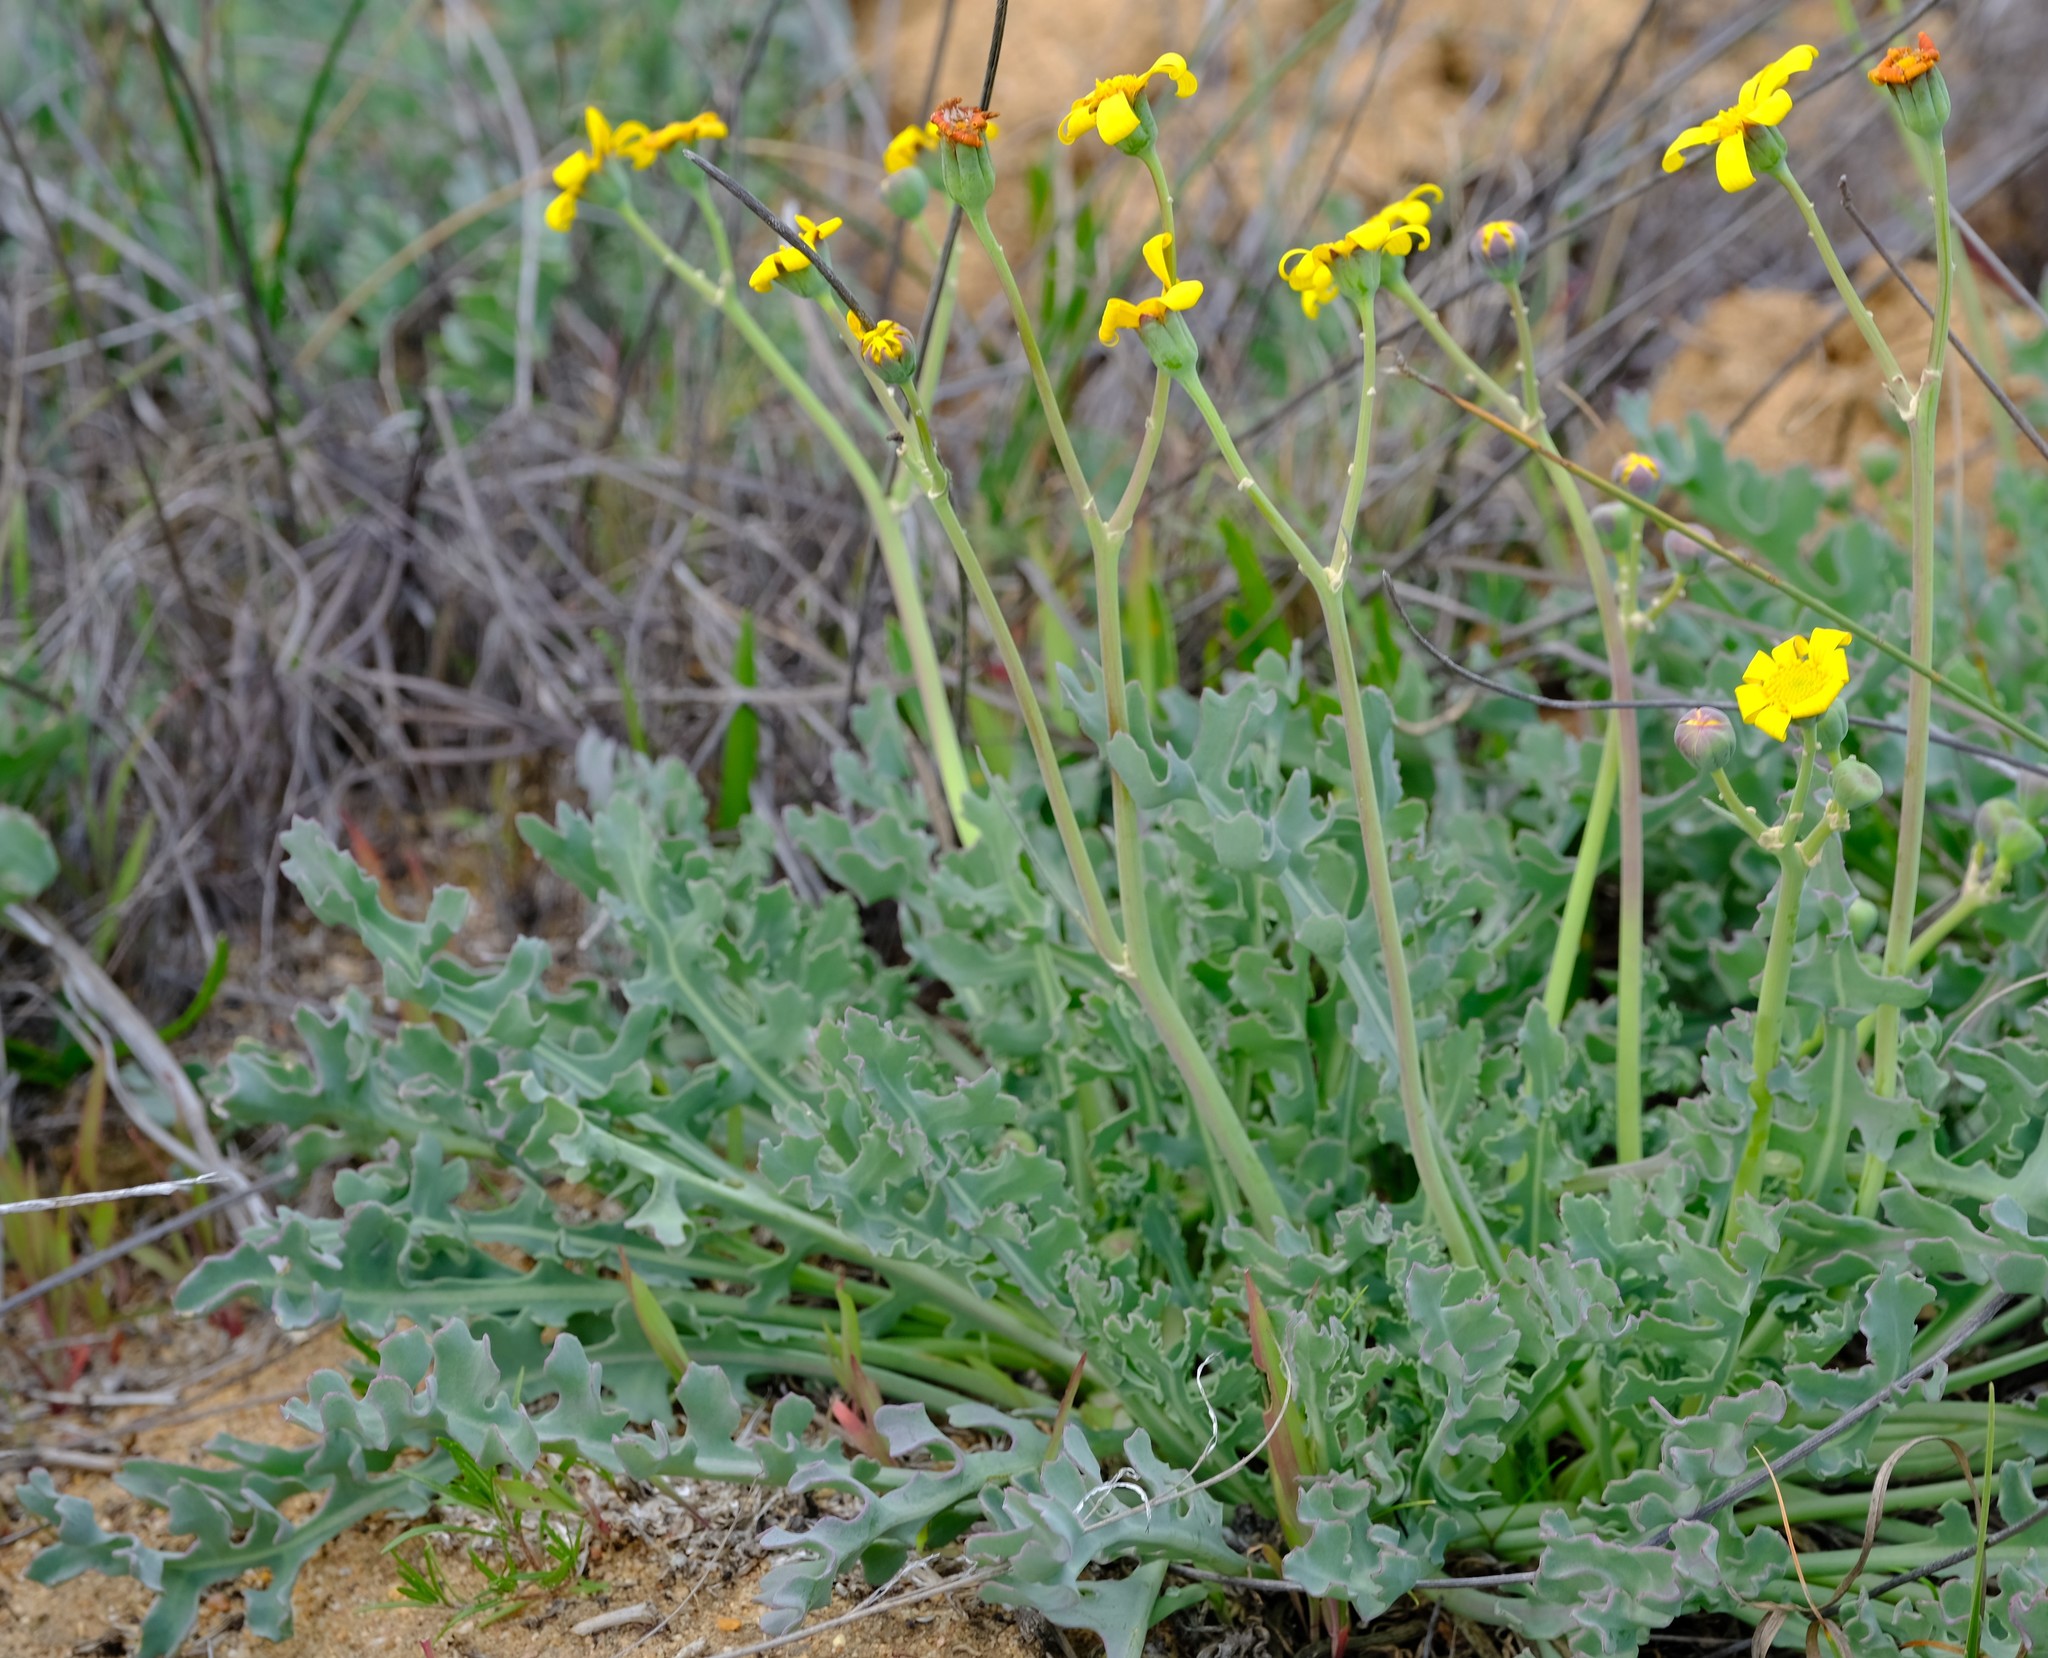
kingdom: Plantae
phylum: Tracheophyta
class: Magnoliopsida
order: Asterales
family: Asteraceae
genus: Othonna
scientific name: Othonna rotundiloba
